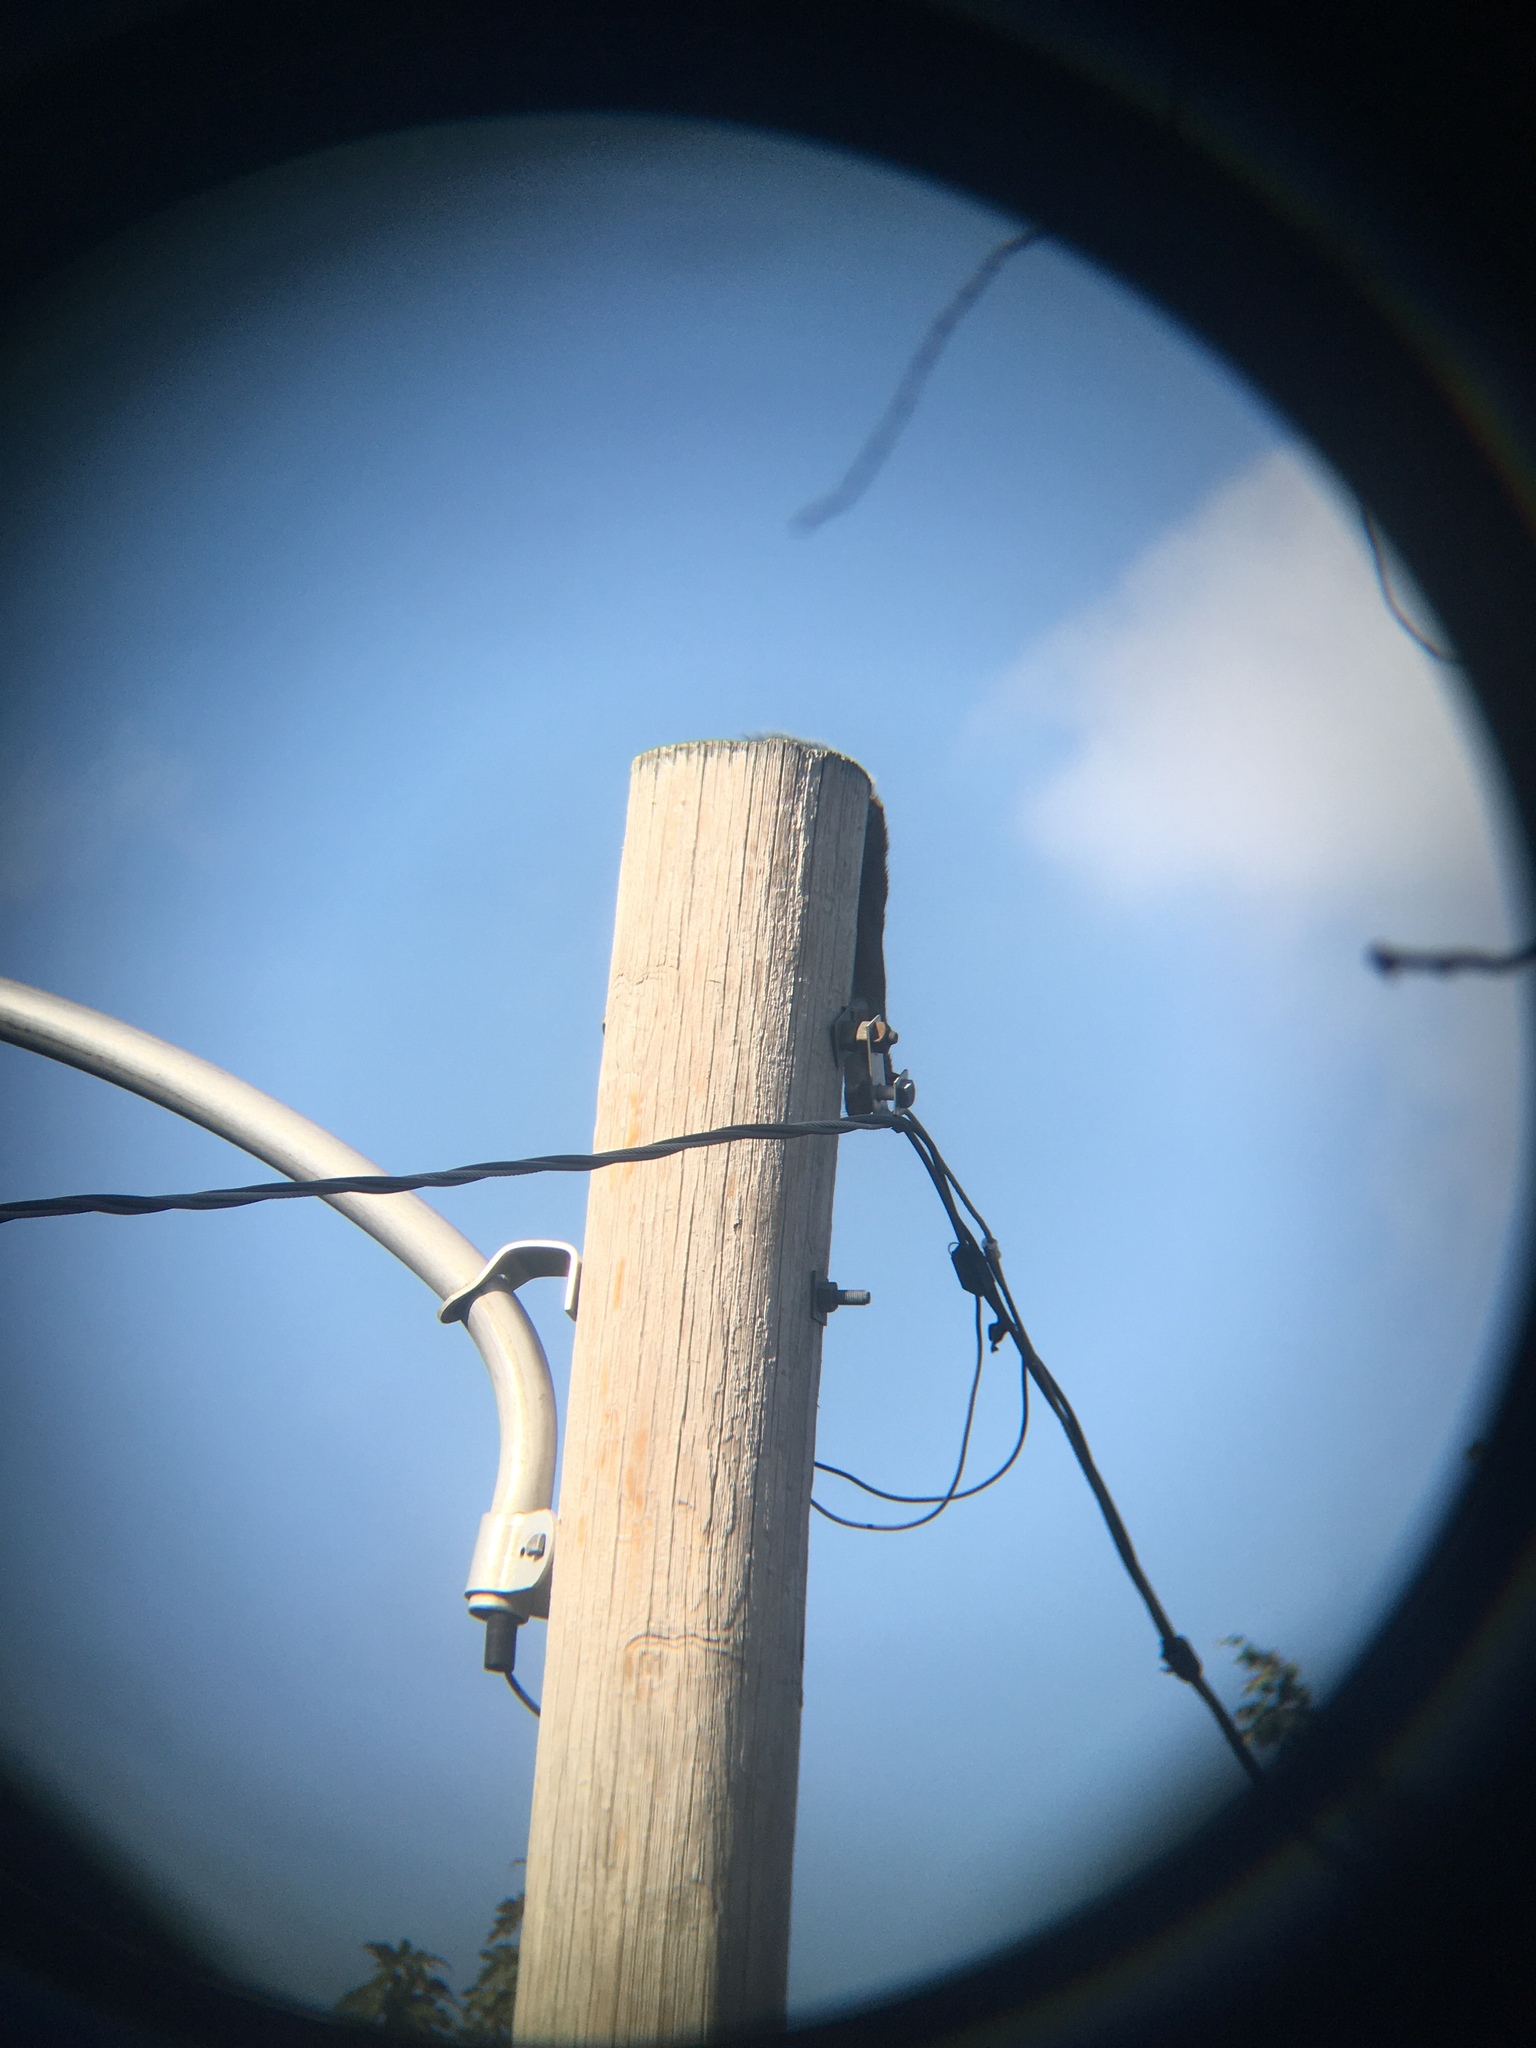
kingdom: Animalia
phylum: Chordata
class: Mammalia
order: Rodentia
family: Sciuridae
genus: Sciurus
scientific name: Sciurus carolinensis
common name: Eastern gray squirrel
